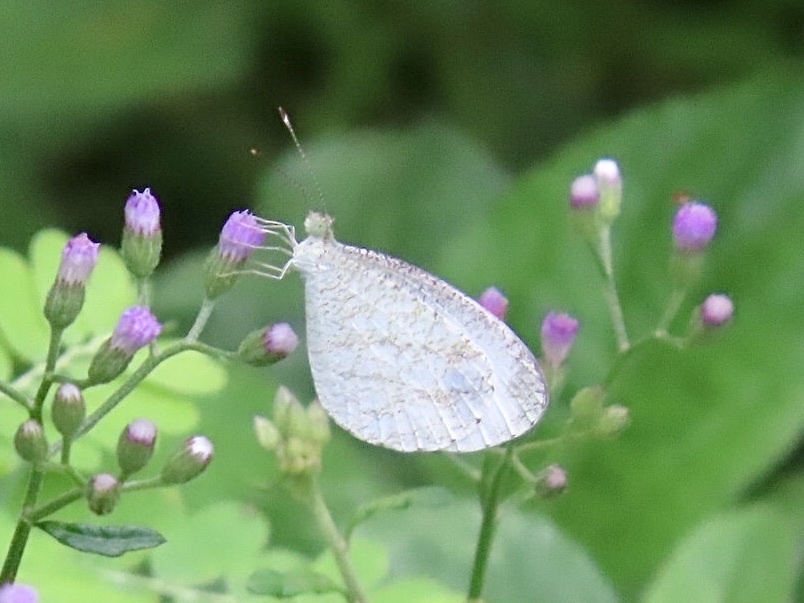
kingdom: Animalia
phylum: Arthropoda
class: Insecta
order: Lepidoptera
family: Pieridae
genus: Leptosia
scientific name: Leptosia nina
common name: Psyche
